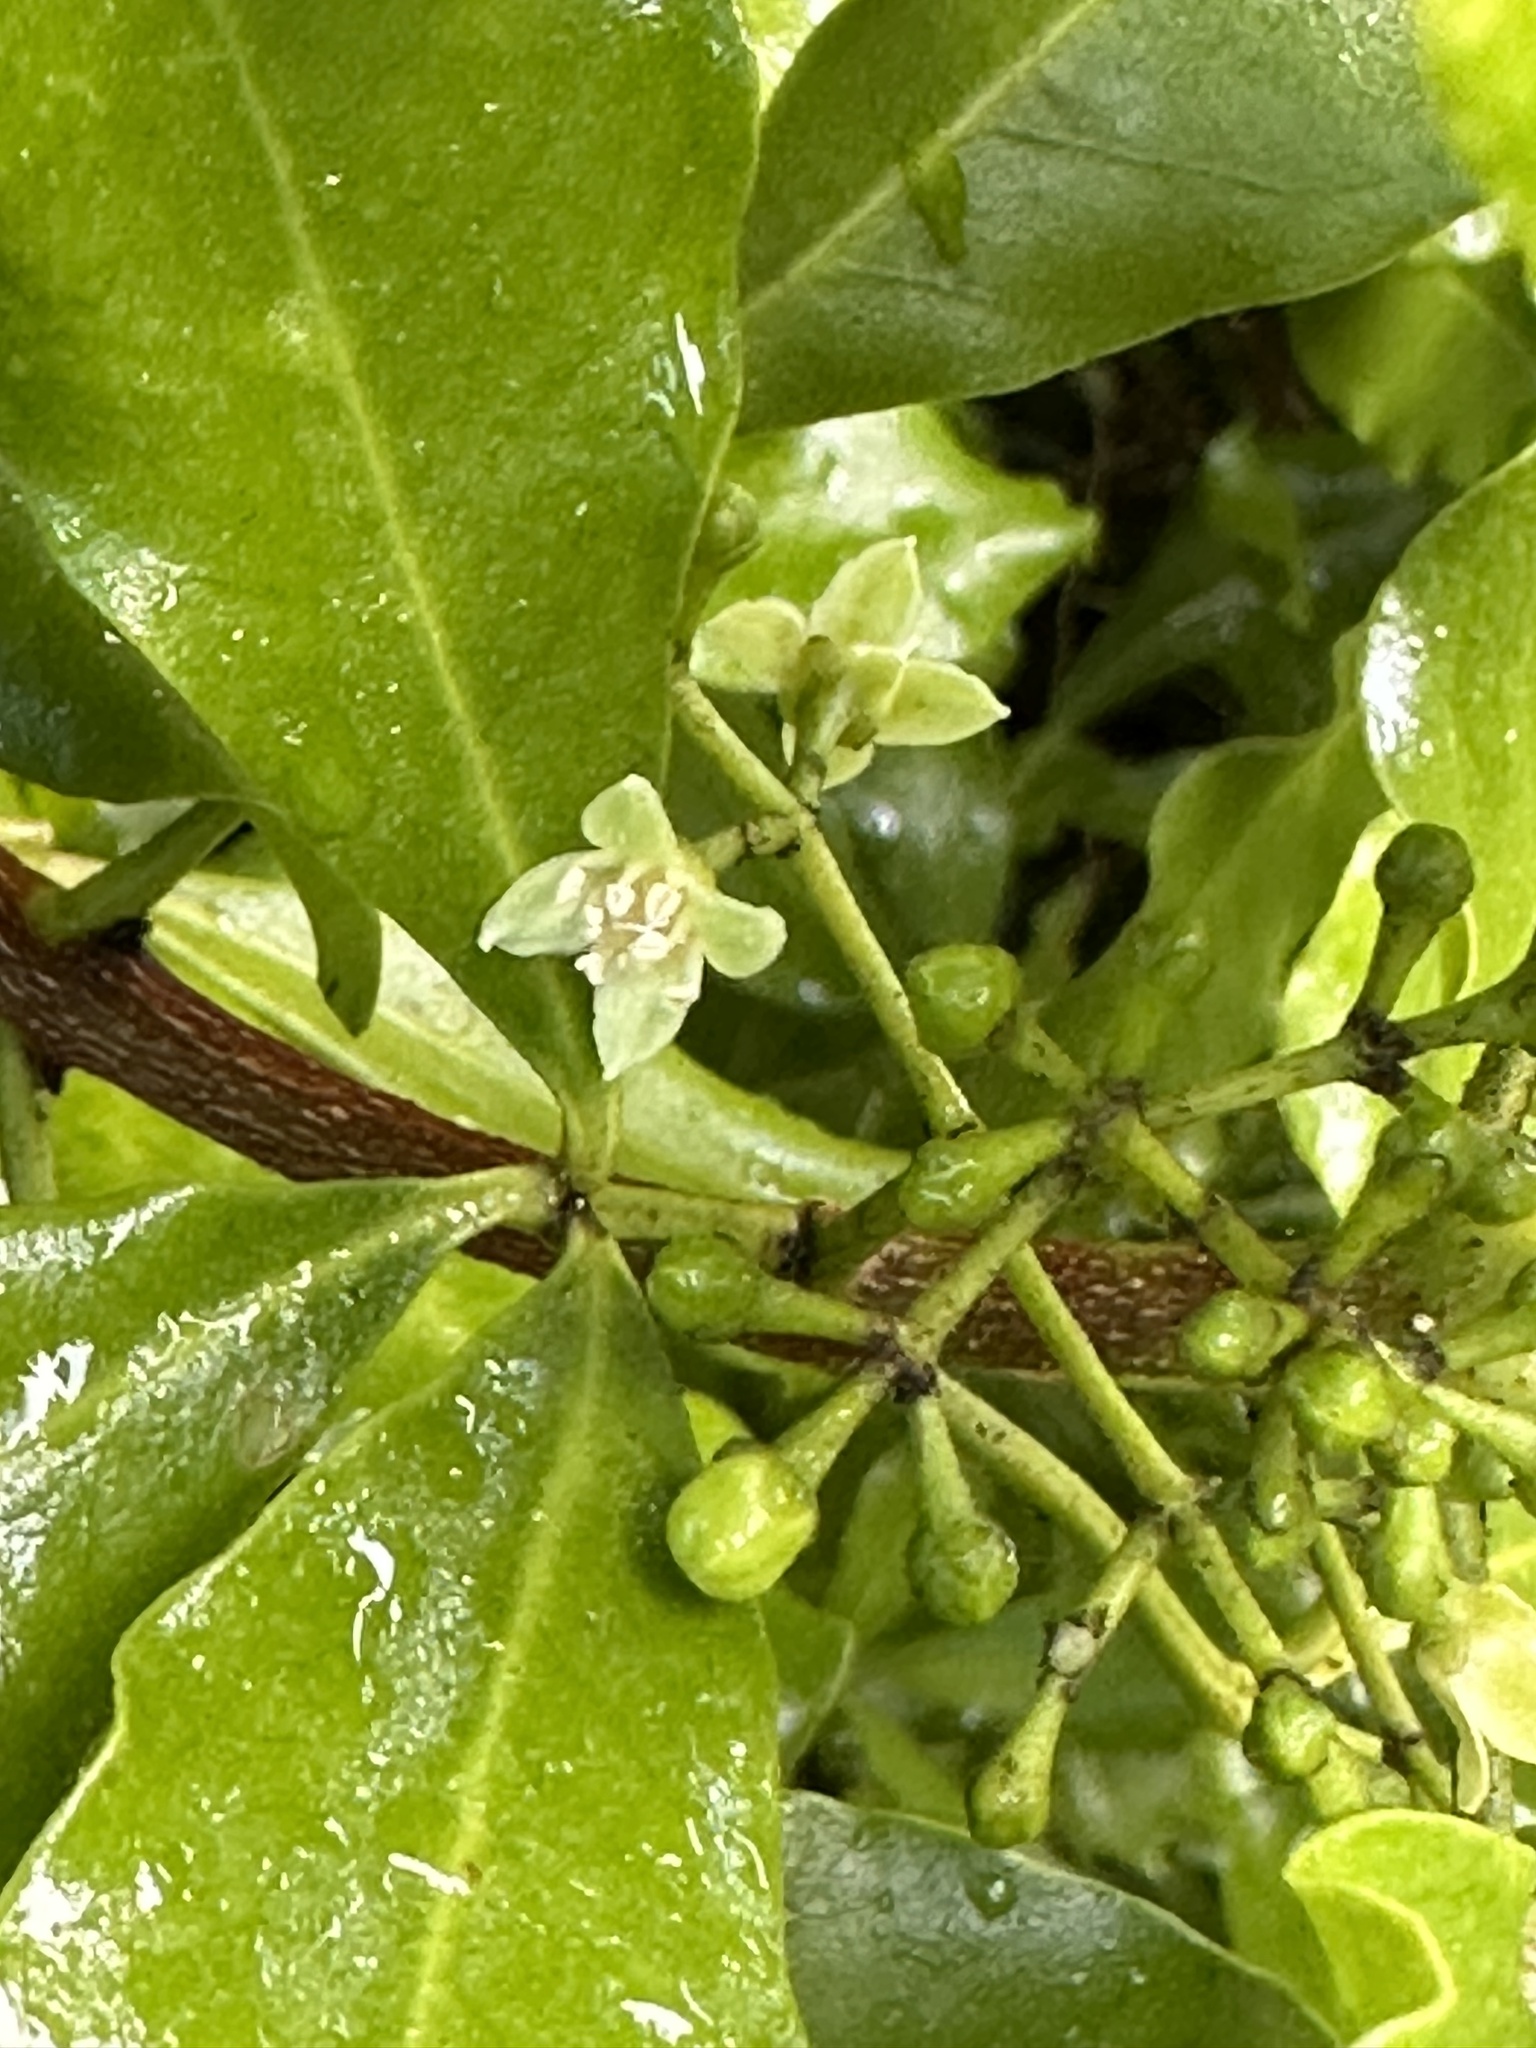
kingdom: Plantae
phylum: Tracheophyta
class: Magnoliopsida
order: Sapindales
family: Rutaceae
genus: Melicope
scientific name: Melicope ternata
